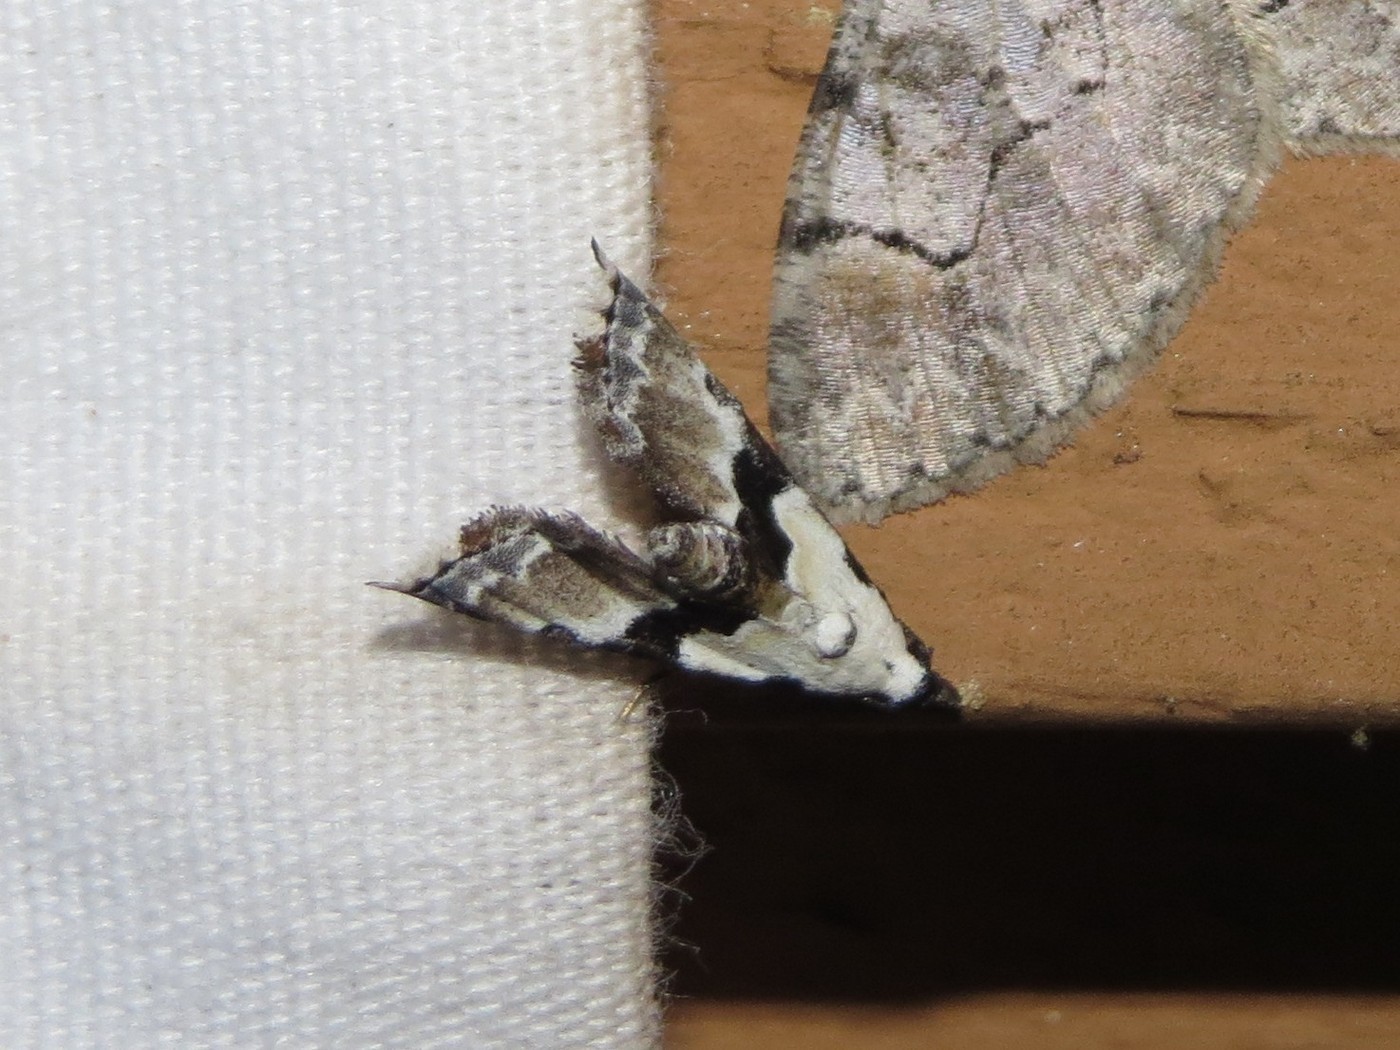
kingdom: Animalia
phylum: Arthropoda
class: Insecta
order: Lepidoptera
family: Noctuidae
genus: Nigetia
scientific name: Nigetia formosalis
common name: Thin-winged owlet
